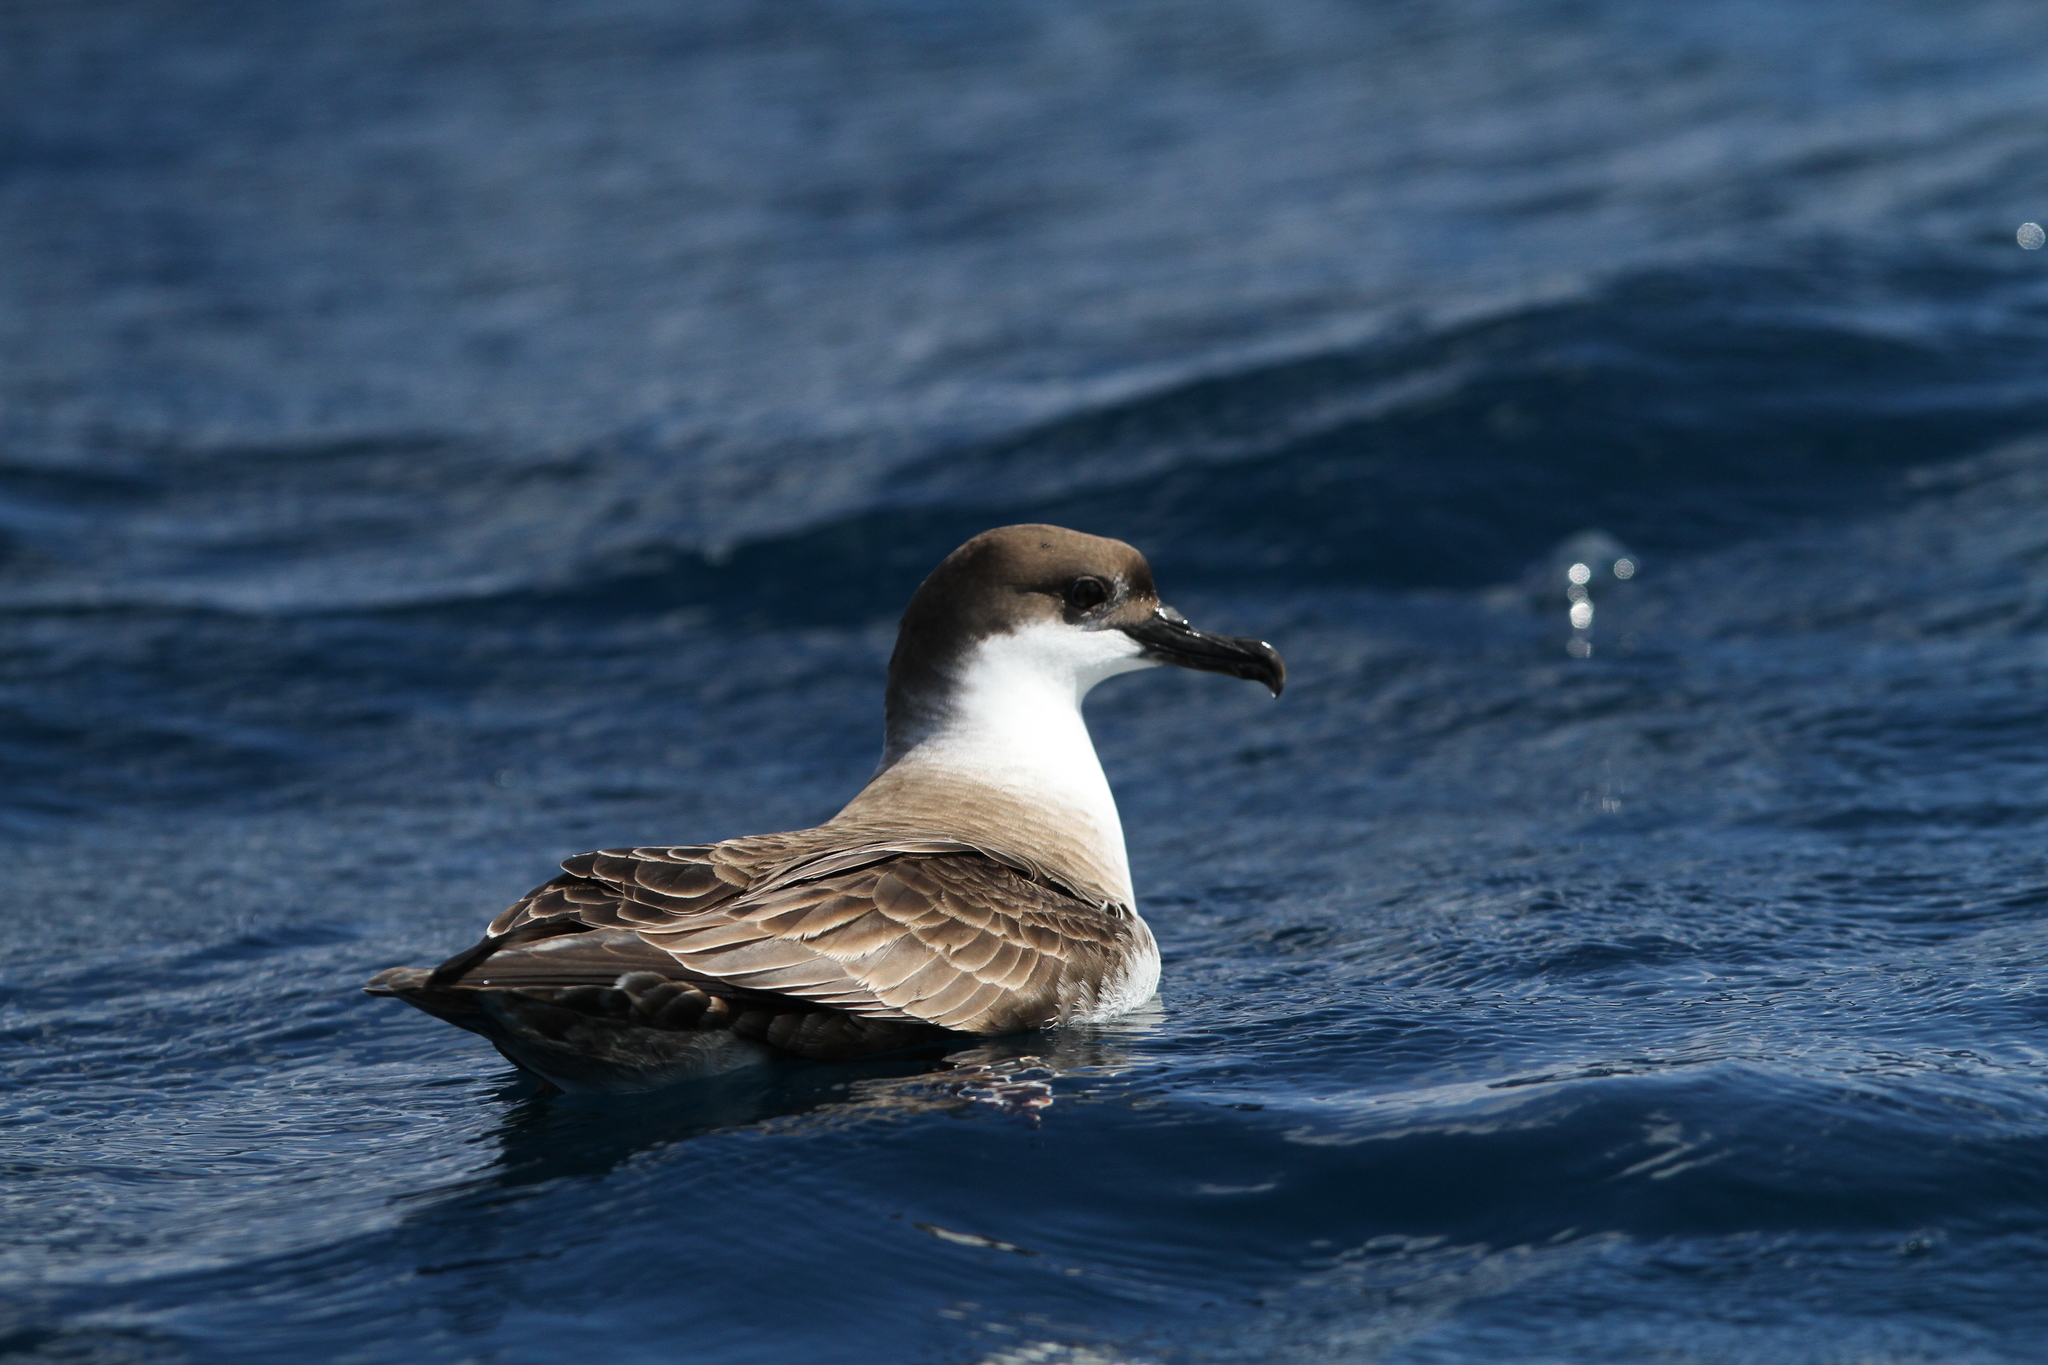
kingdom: Animalia
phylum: Chordata
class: Aves
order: Procellariiformes
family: Procellariidae
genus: Puffinus
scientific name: Puffinus gravis
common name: Great shearwater
